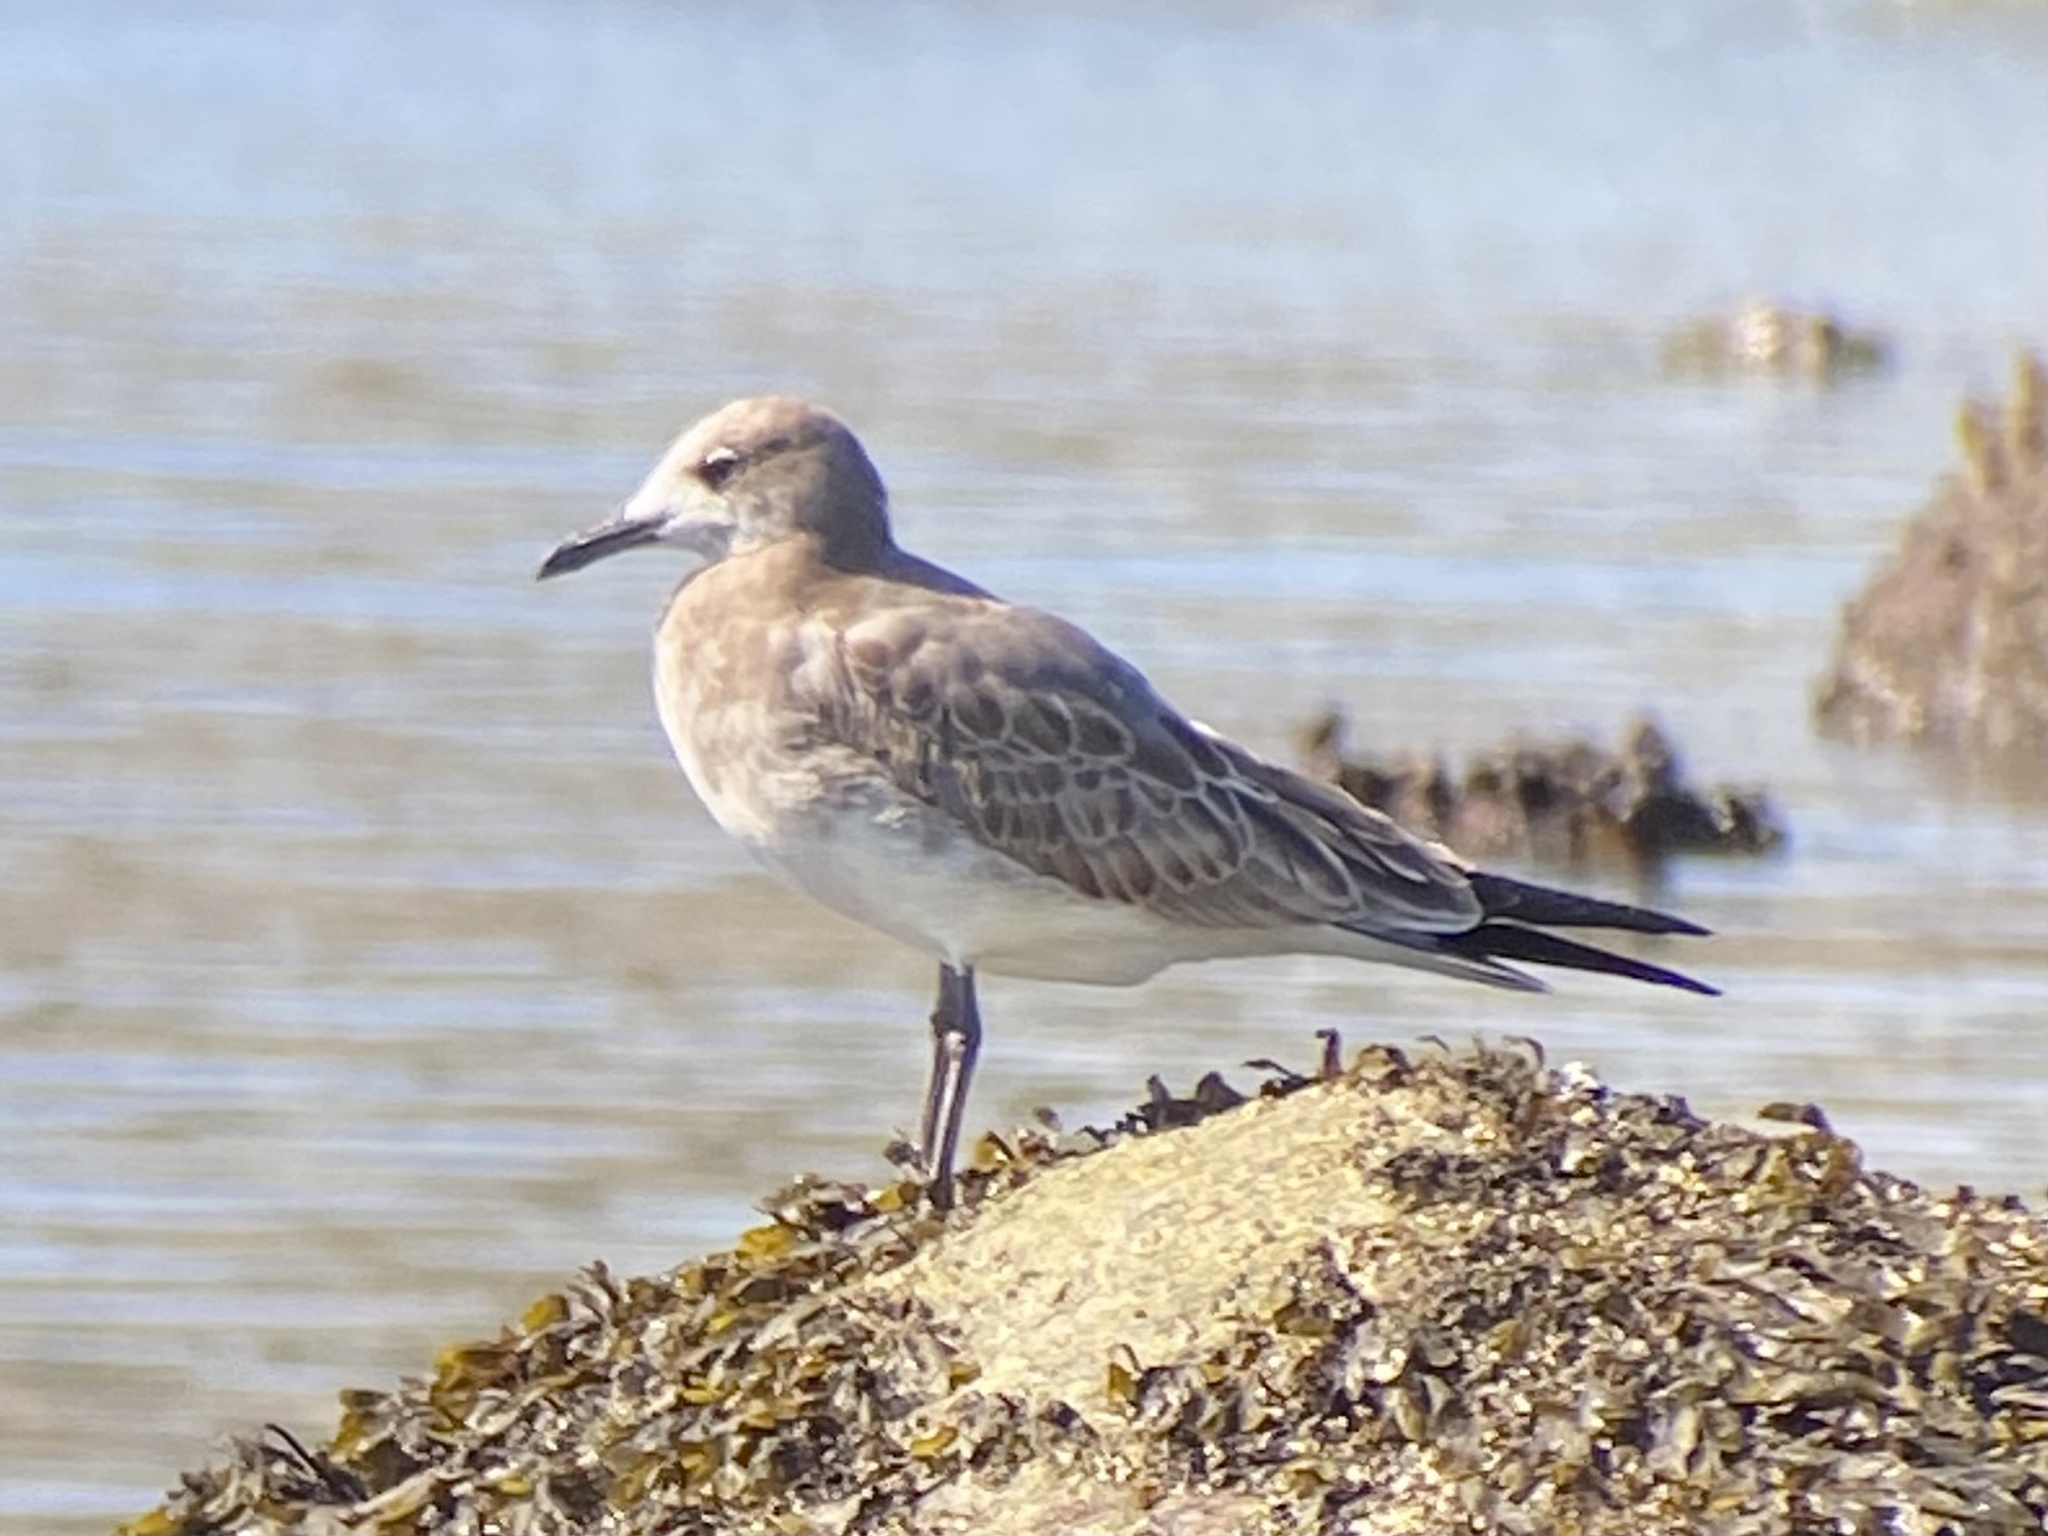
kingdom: Animalia
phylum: Chordata
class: Aves
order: Charadriiformes
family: Laridae
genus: Leucophaeus
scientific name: Leucophaeus atricilla
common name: Laughing gull
